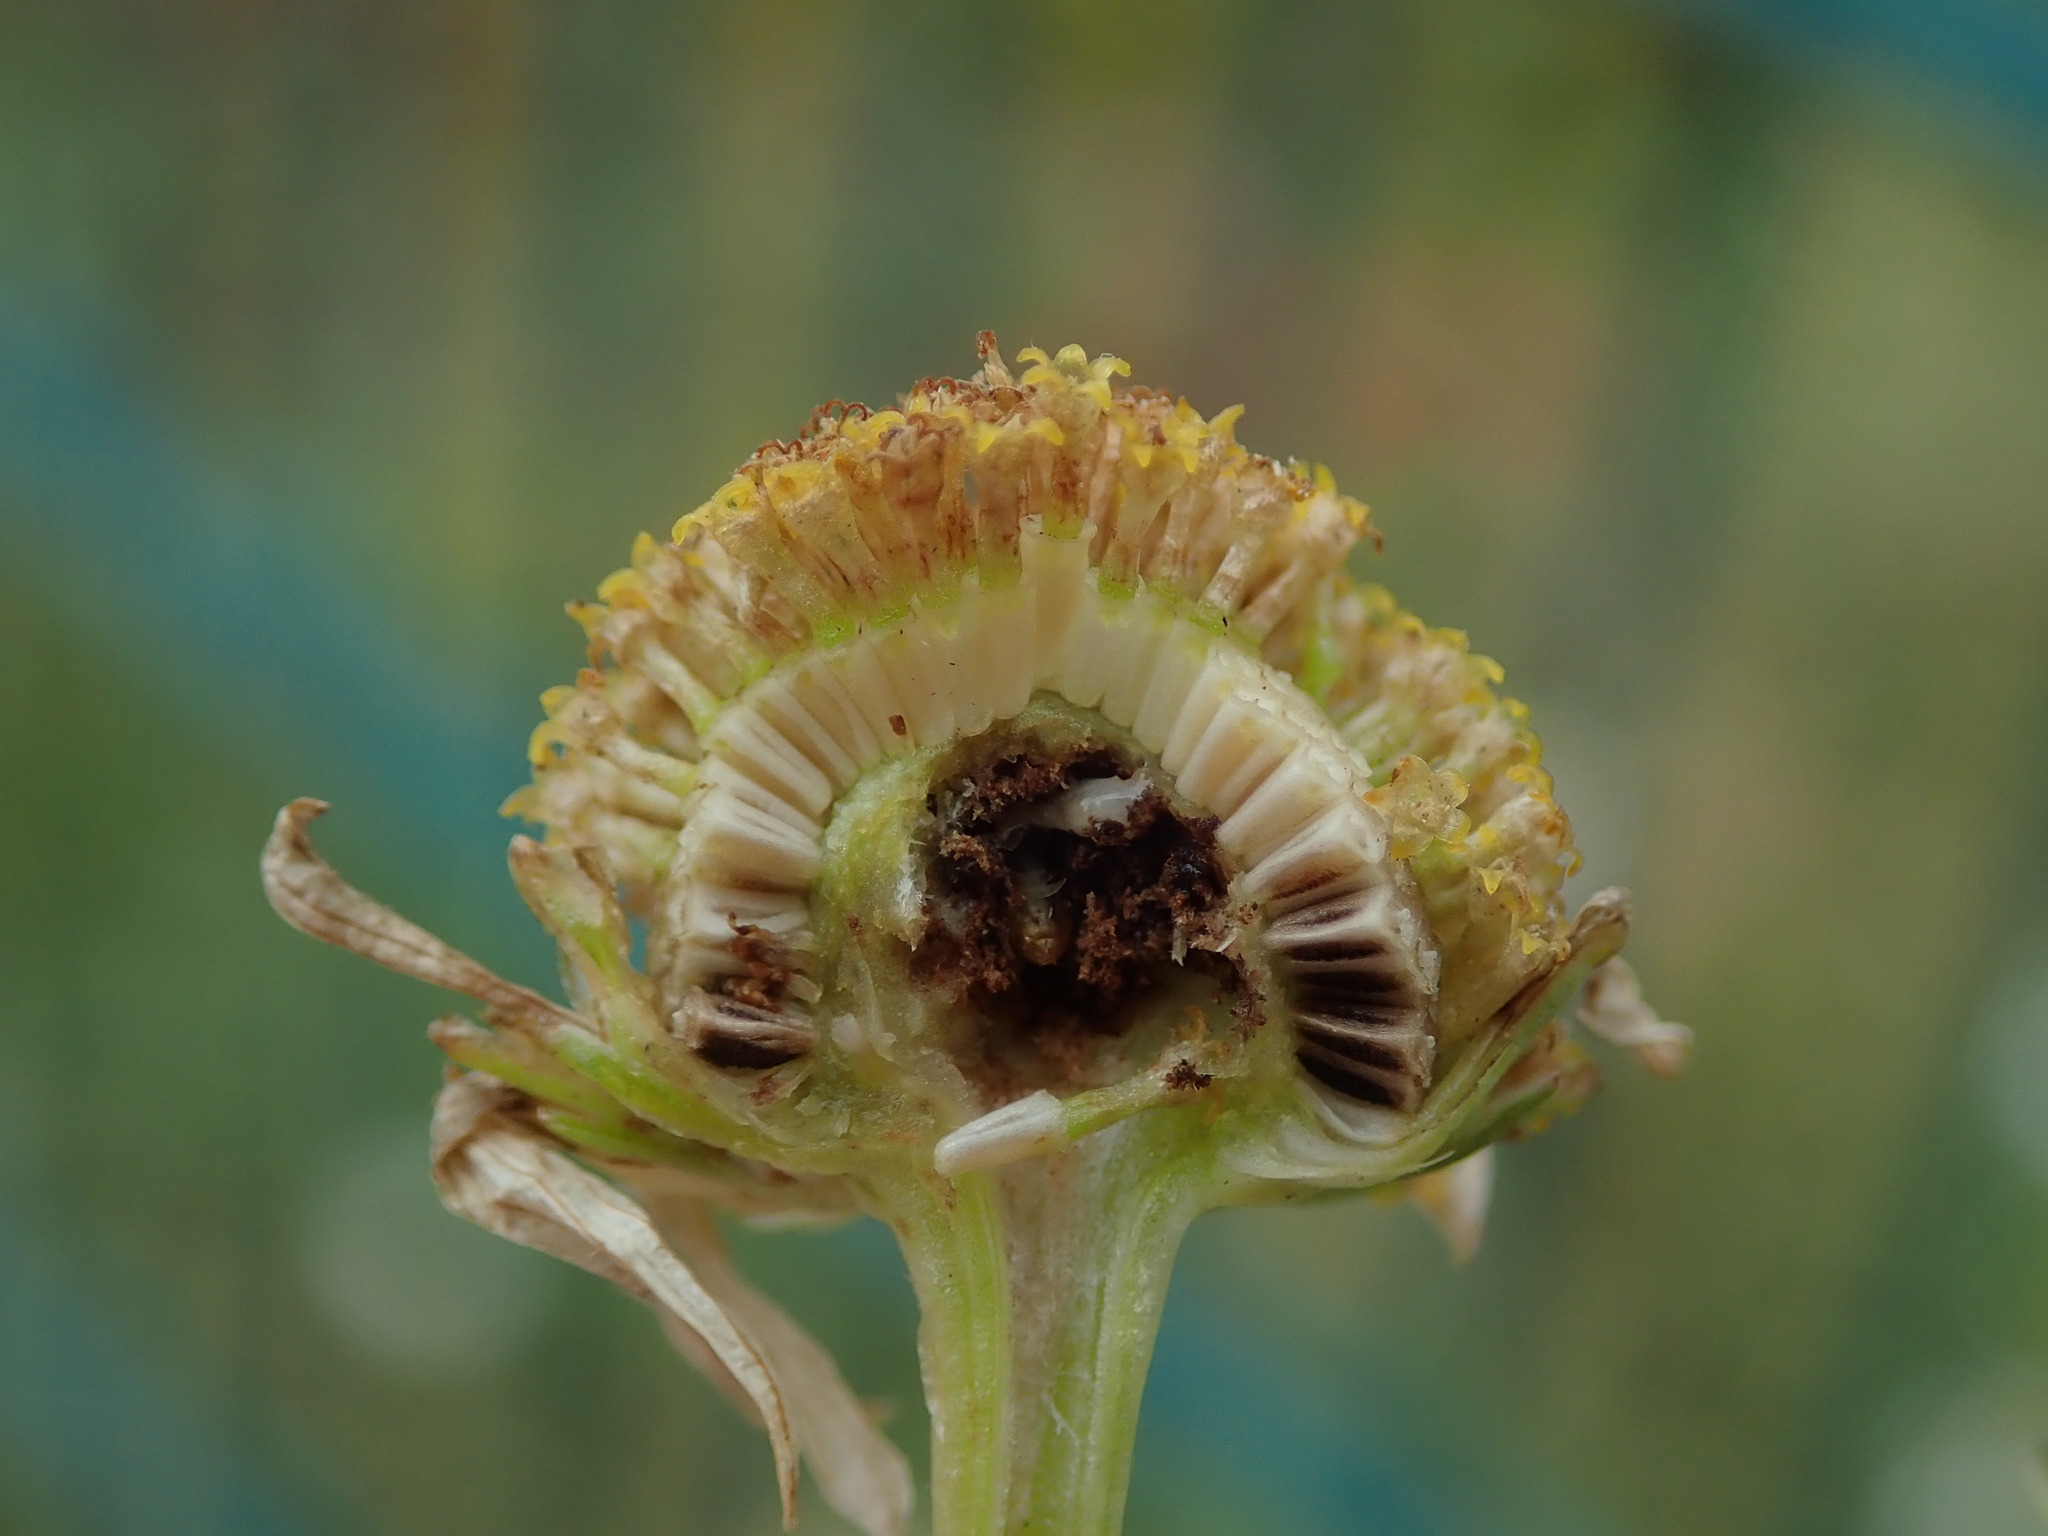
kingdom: Plantae
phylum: Tracheophyta
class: Magnoliopsida
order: Asterales
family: Asteraceae
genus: Tripleurospermum
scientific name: Tripleurospermum inodorum
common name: Scentless mayweed
